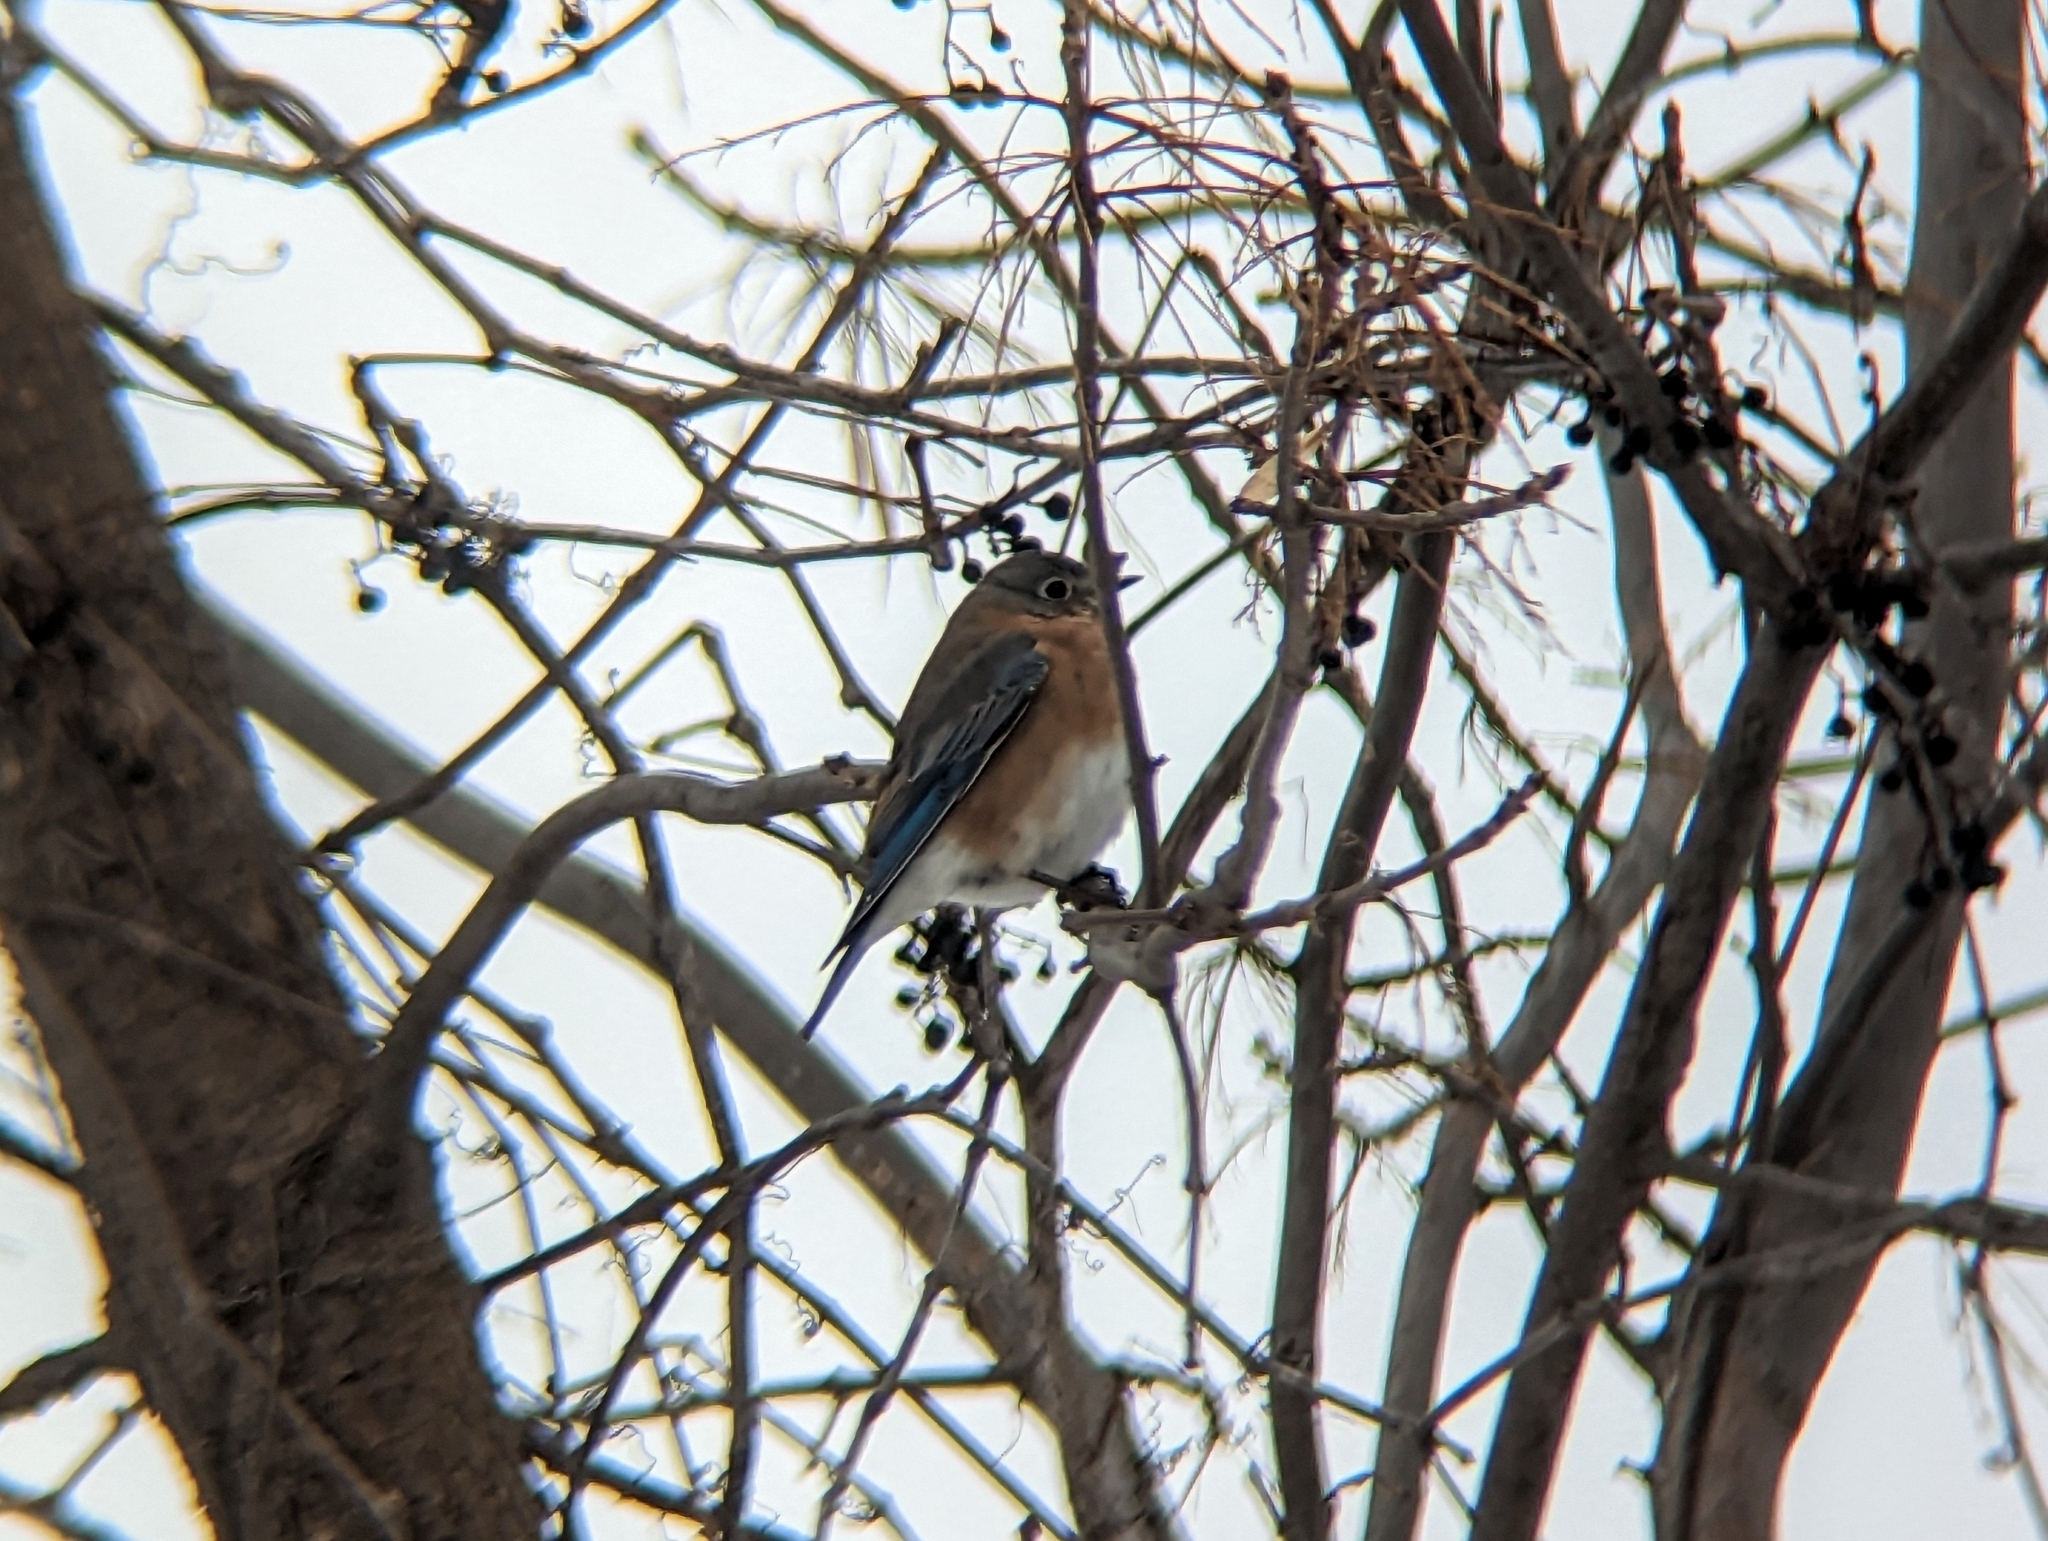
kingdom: Animalia
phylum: Chordata
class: Aves
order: Passeriformes
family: Turdidae
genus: Sialia
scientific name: Sialia sialis
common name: Eastern bluebird
